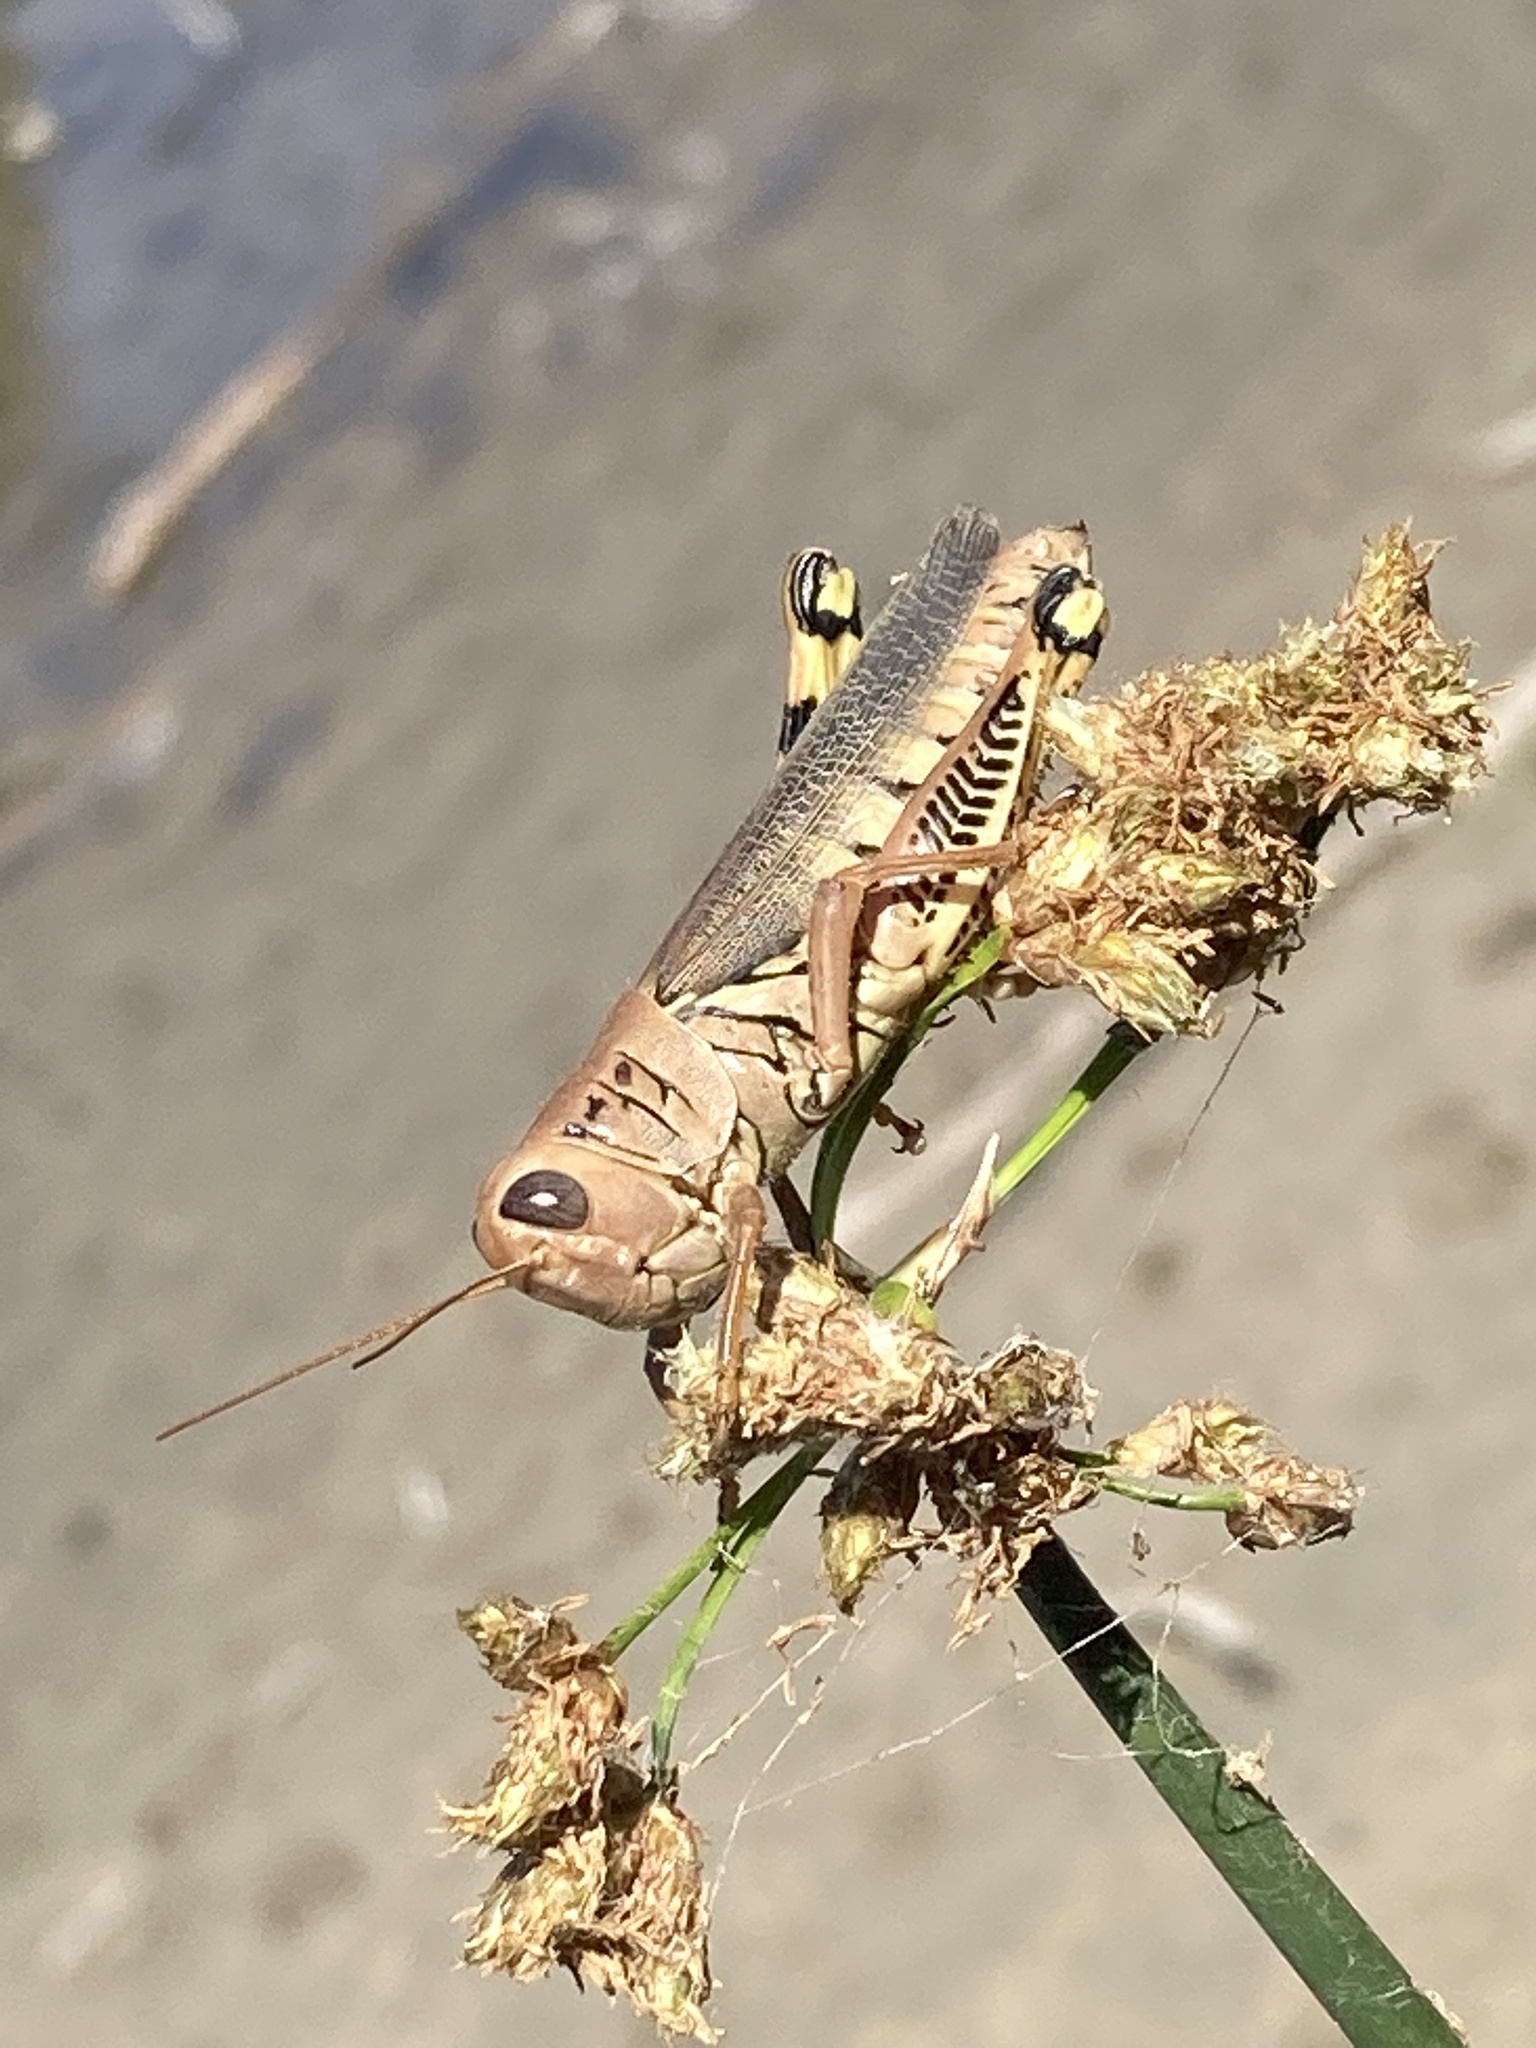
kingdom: Animalia
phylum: Arthropoda
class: Insecta
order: Orthoptera
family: Acrididae
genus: Melanoplus
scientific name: Melanoplus differentialis
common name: Differential grasshopper
